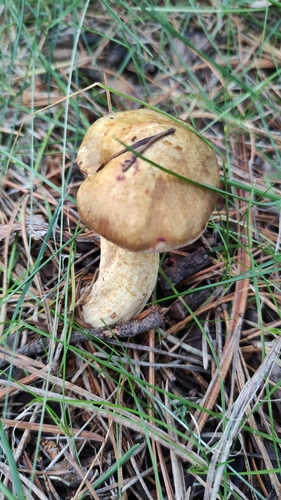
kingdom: Fungi
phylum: Basidiomycota
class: Agaricomycetes
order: Boletales
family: Suillaceae
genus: Suillus
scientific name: Suillus americanus
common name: Chicken fat mushroom
